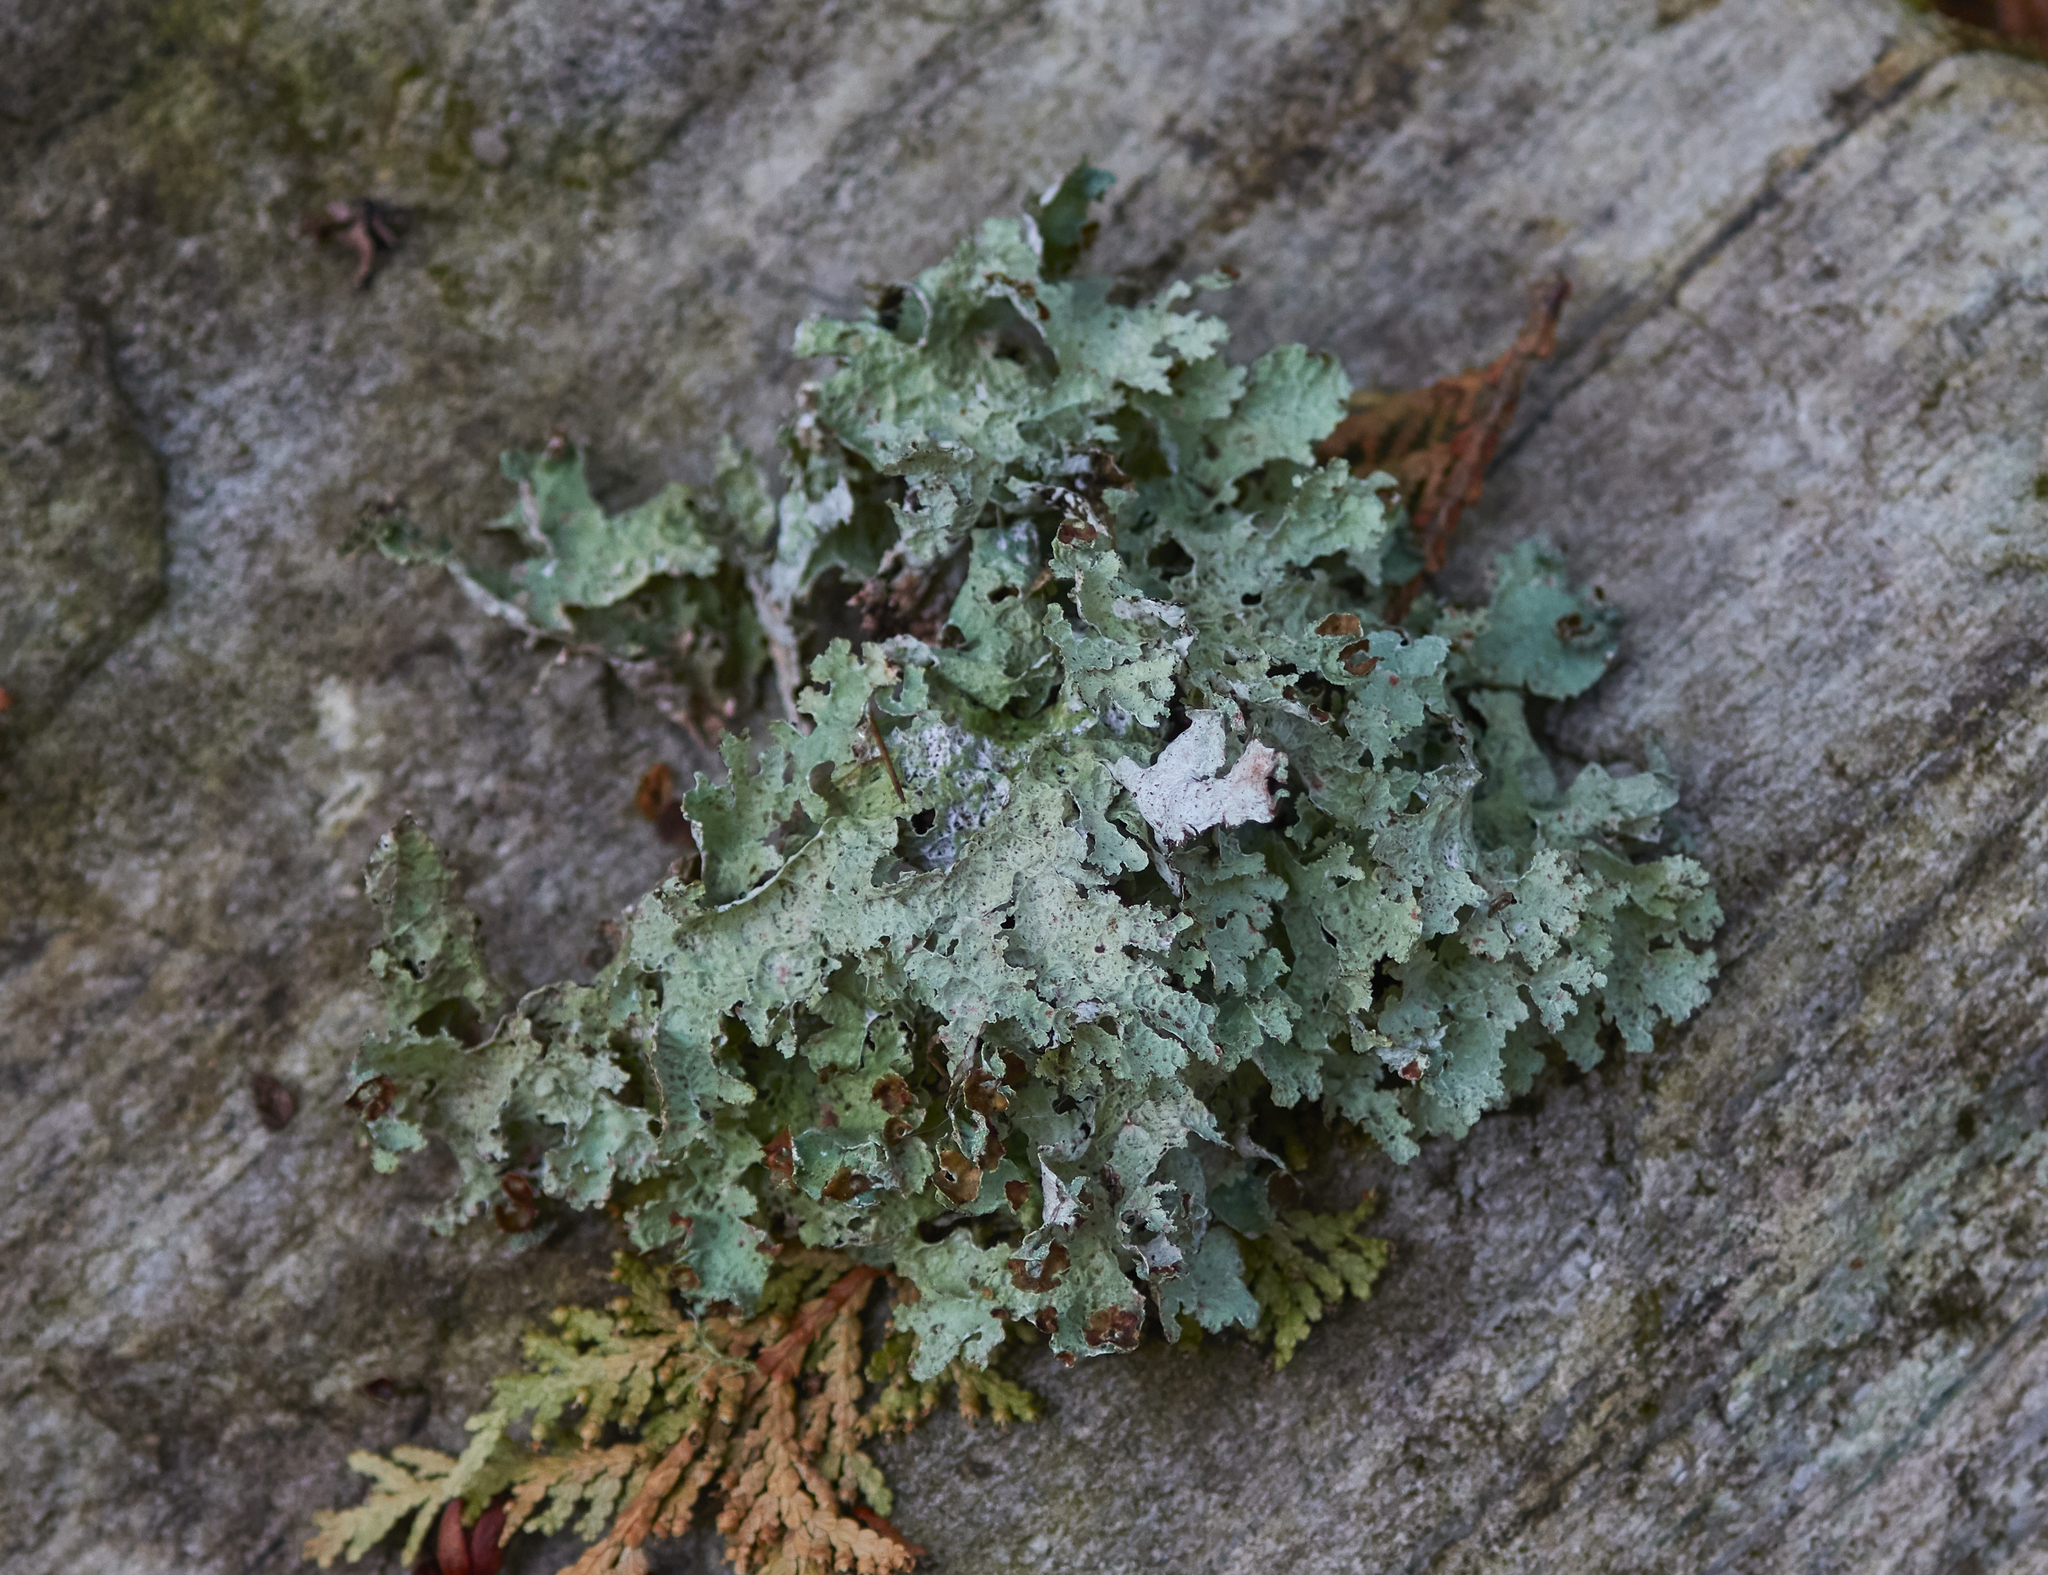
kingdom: Fungi
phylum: Ascomycota
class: Lecanoromycetes
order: Lecanorales
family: Parmeliaceae
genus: Platismatia
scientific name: Platismatia glauca
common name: Varied rag lichen
